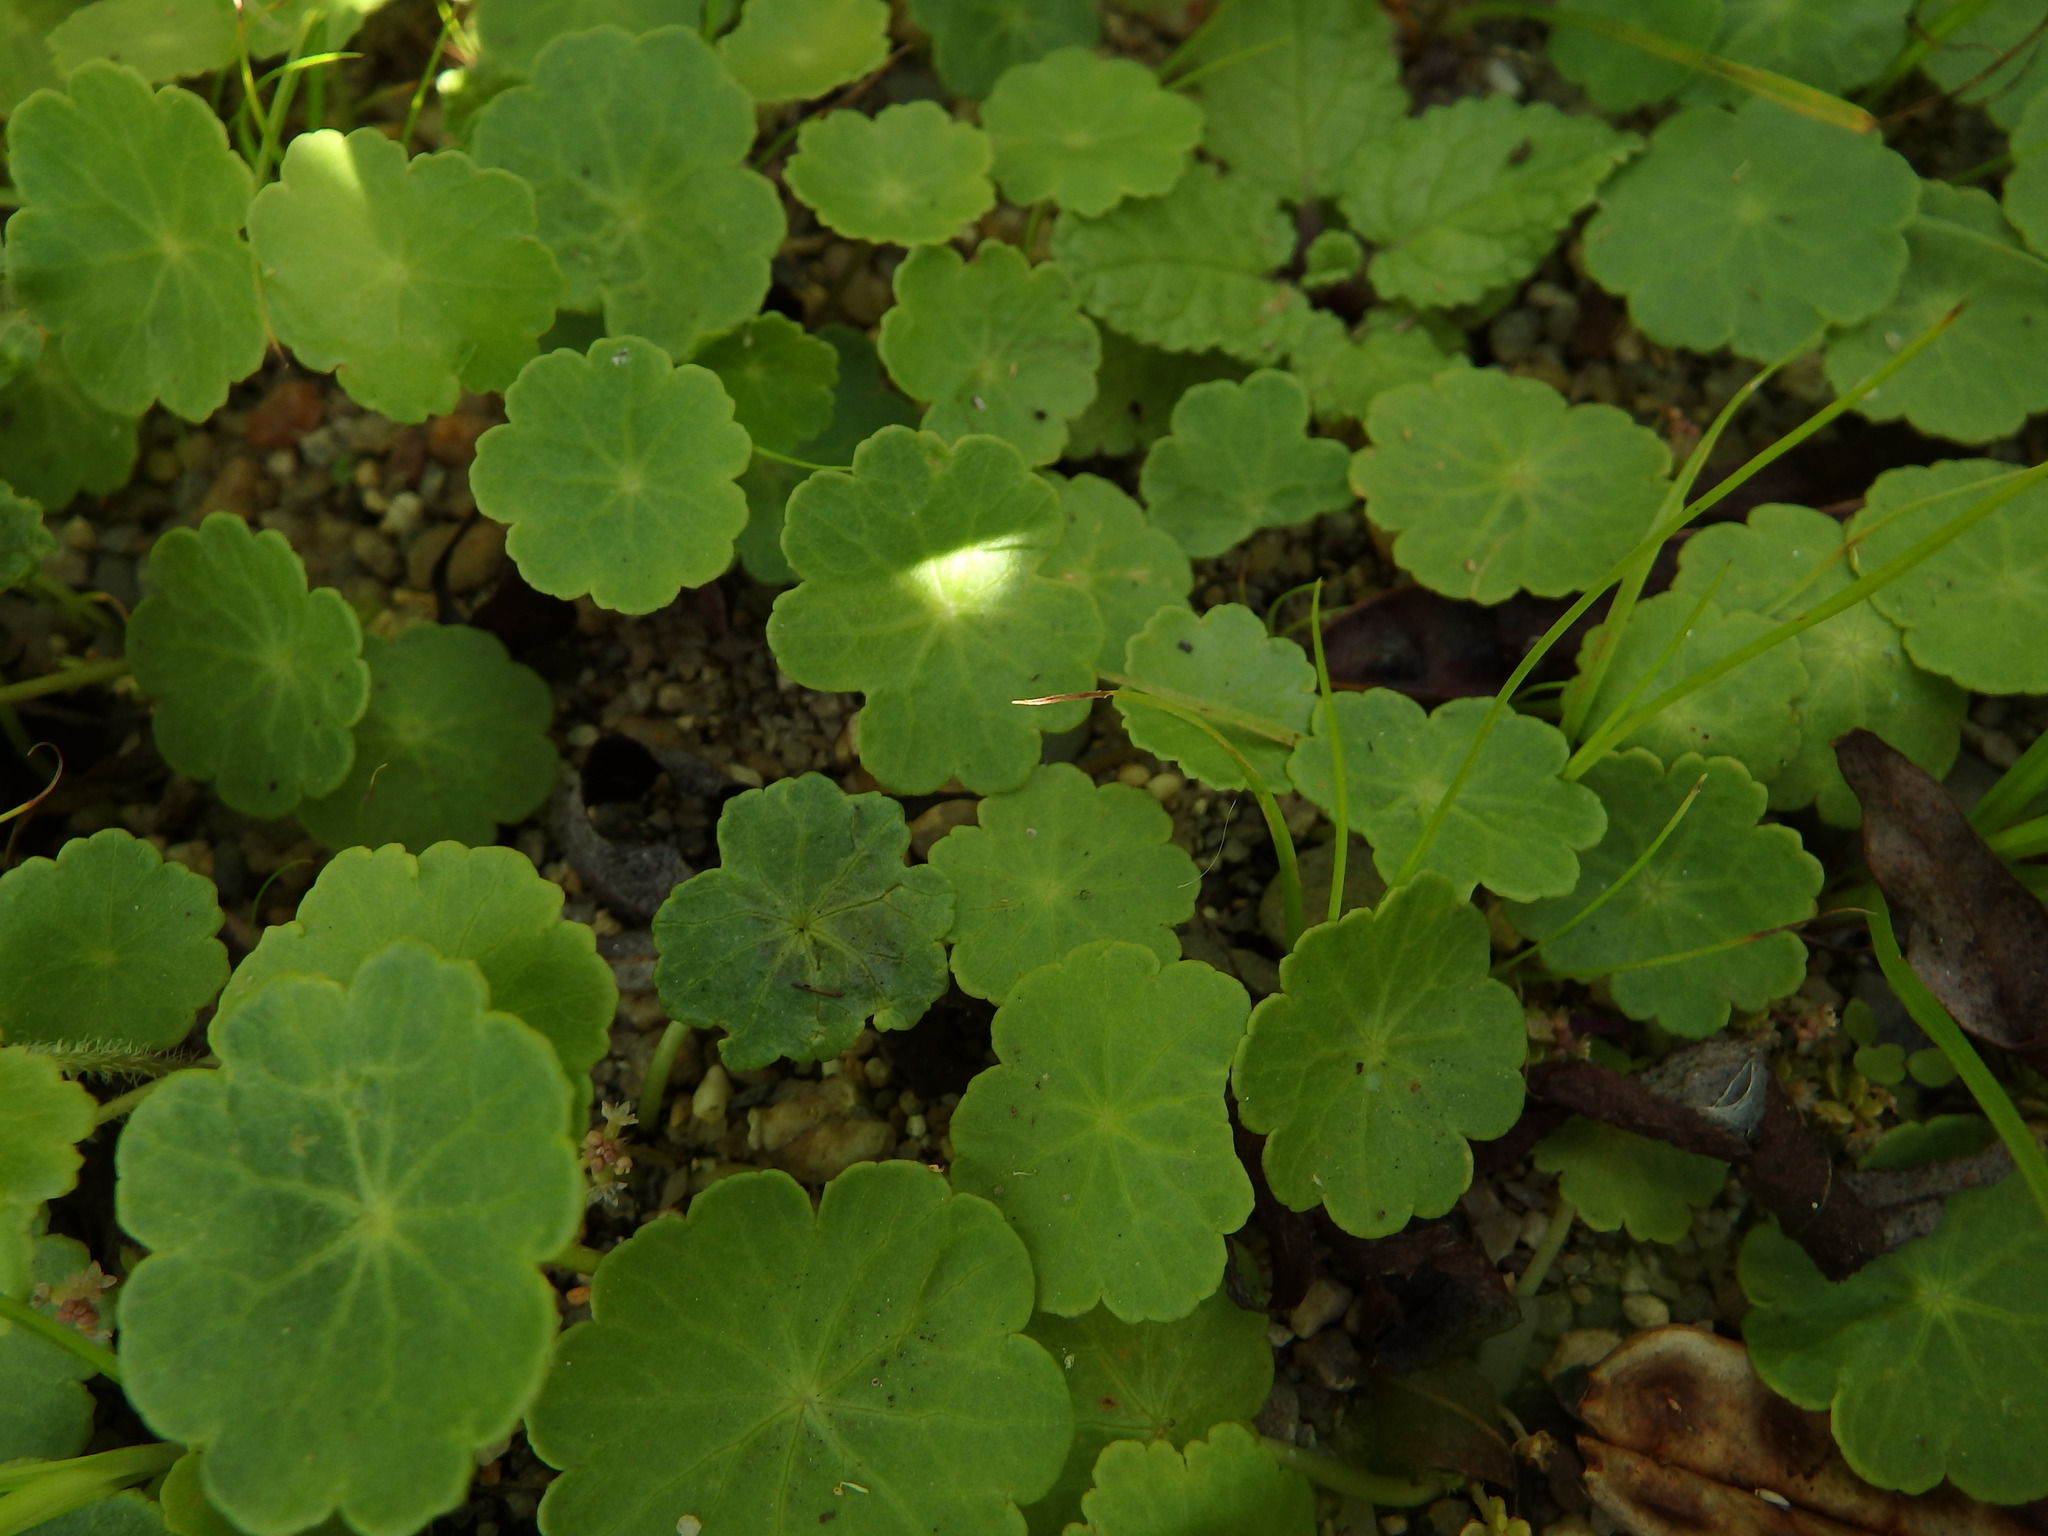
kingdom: Plantae
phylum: Tracheophyta
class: Magnoliopsida
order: Apiales
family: Araliaceae
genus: Hydrocotyle
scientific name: Hydrocotyle vulgaris
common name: Marsh pennywort
